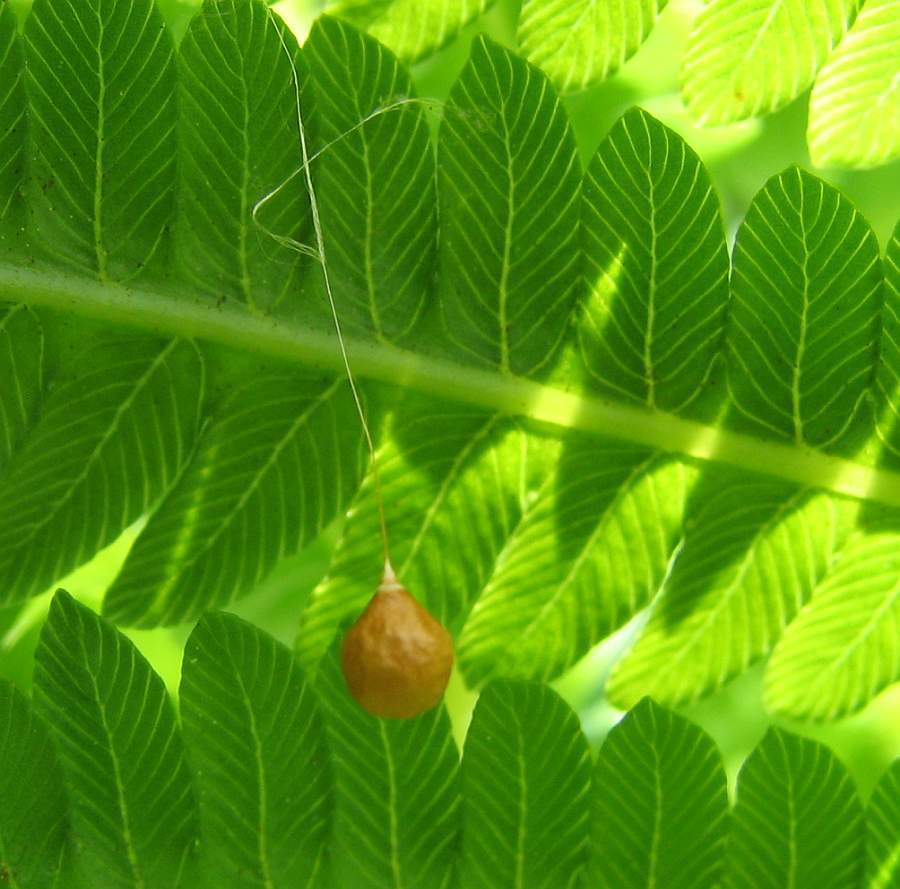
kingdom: Animalia
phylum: Arthropoda
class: Arachnida
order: Araneae
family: Theridiosomatidae
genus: Theridiosoma
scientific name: Theridiosoma gemmosum
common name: Ray spider
